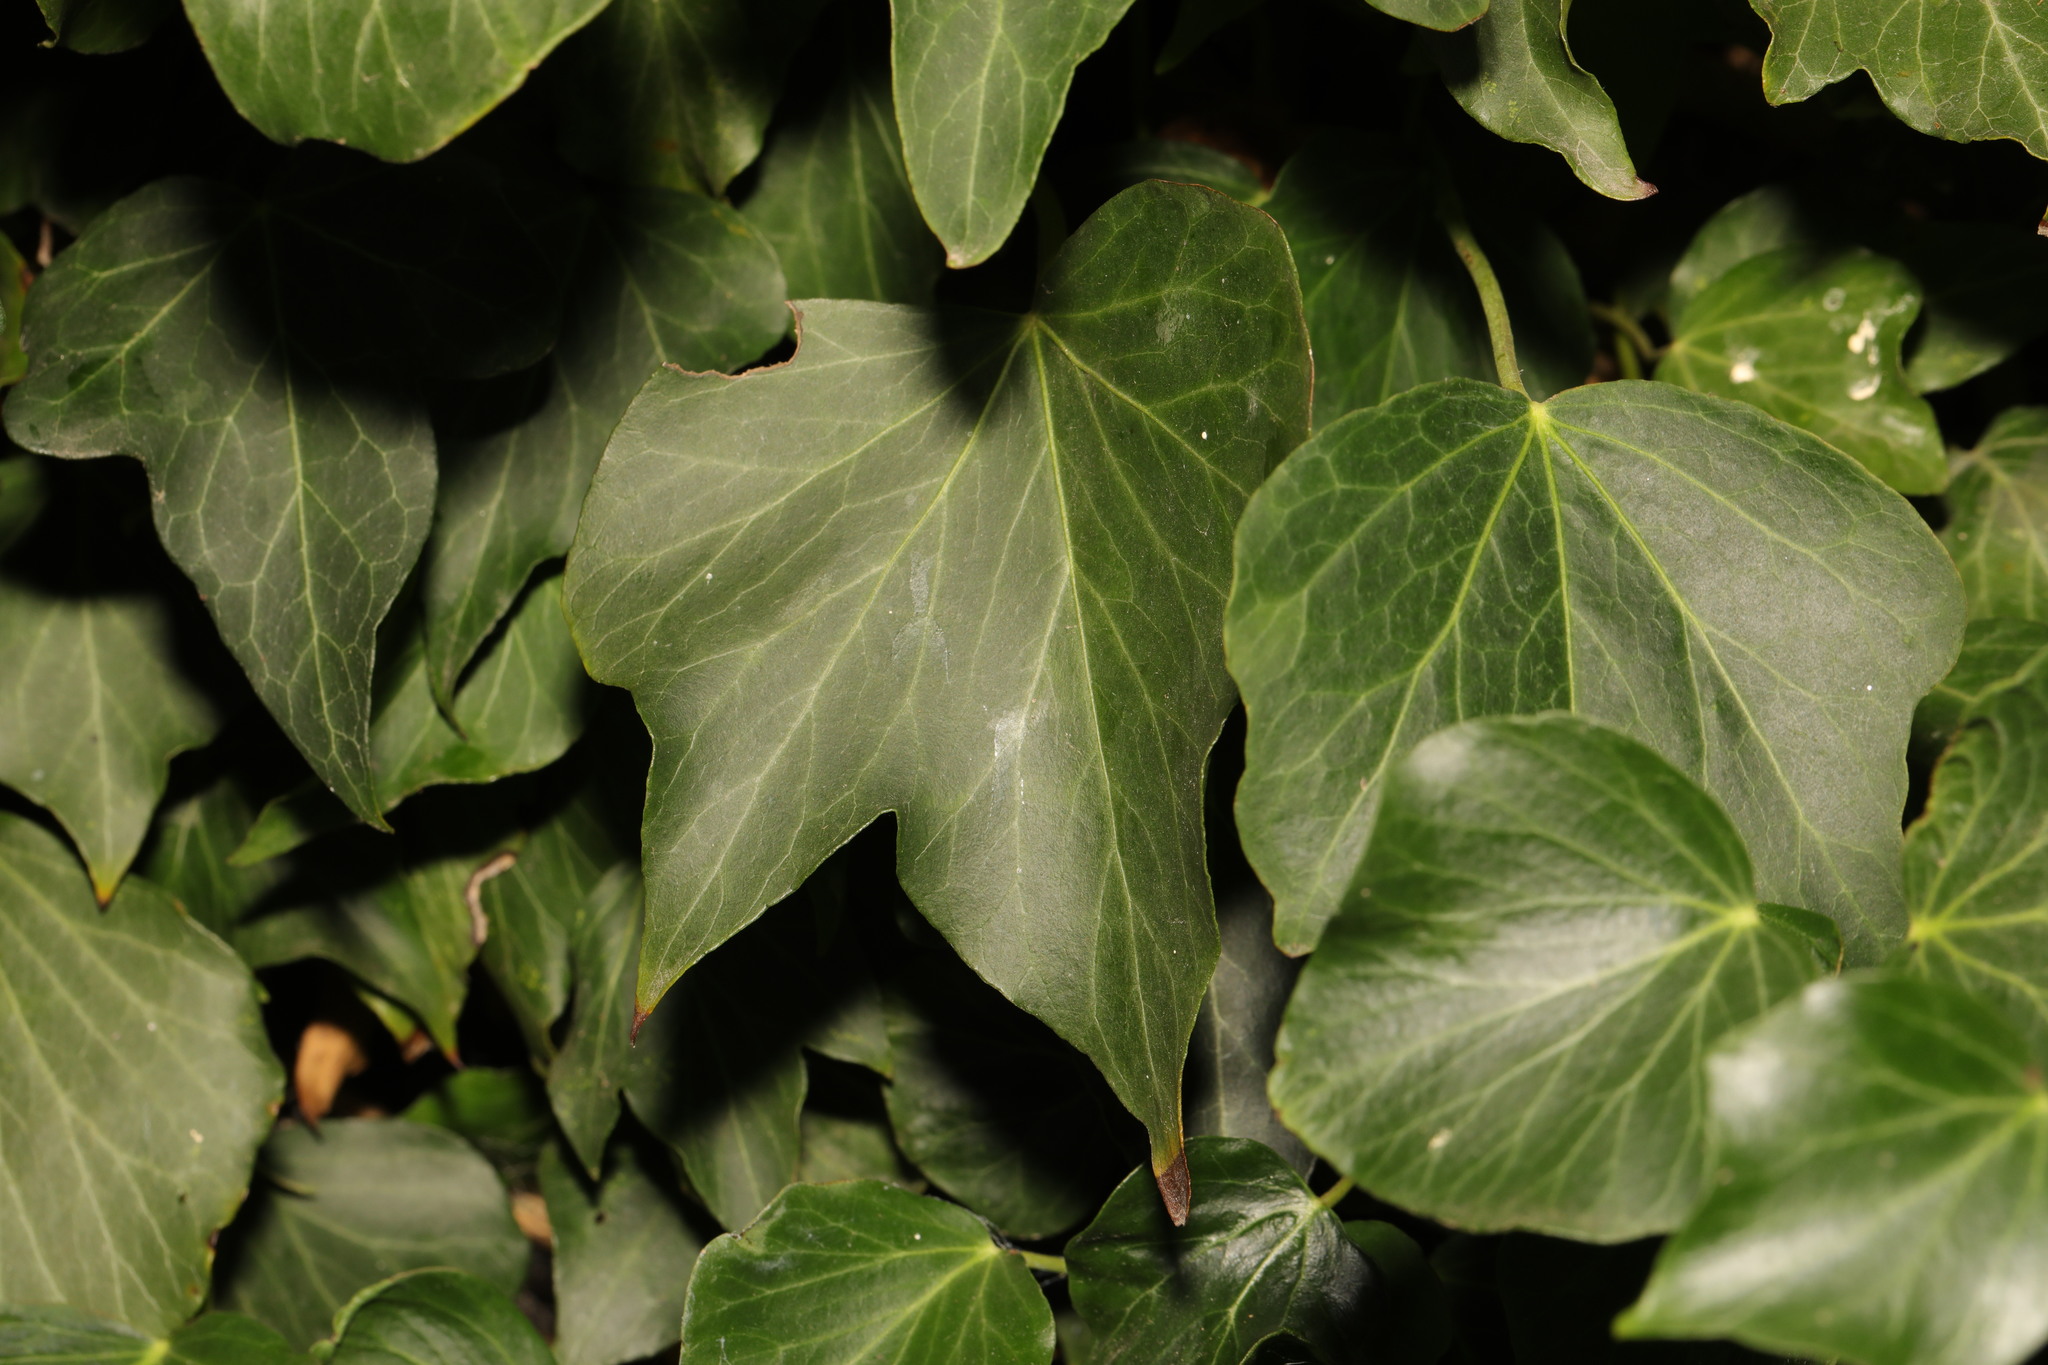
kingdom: Plantae
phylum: Tracheophyta
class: Magnoliopsida
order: Apiales
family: Araliaceae
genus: Hedera
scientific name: Hedera helix
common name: Ivy
